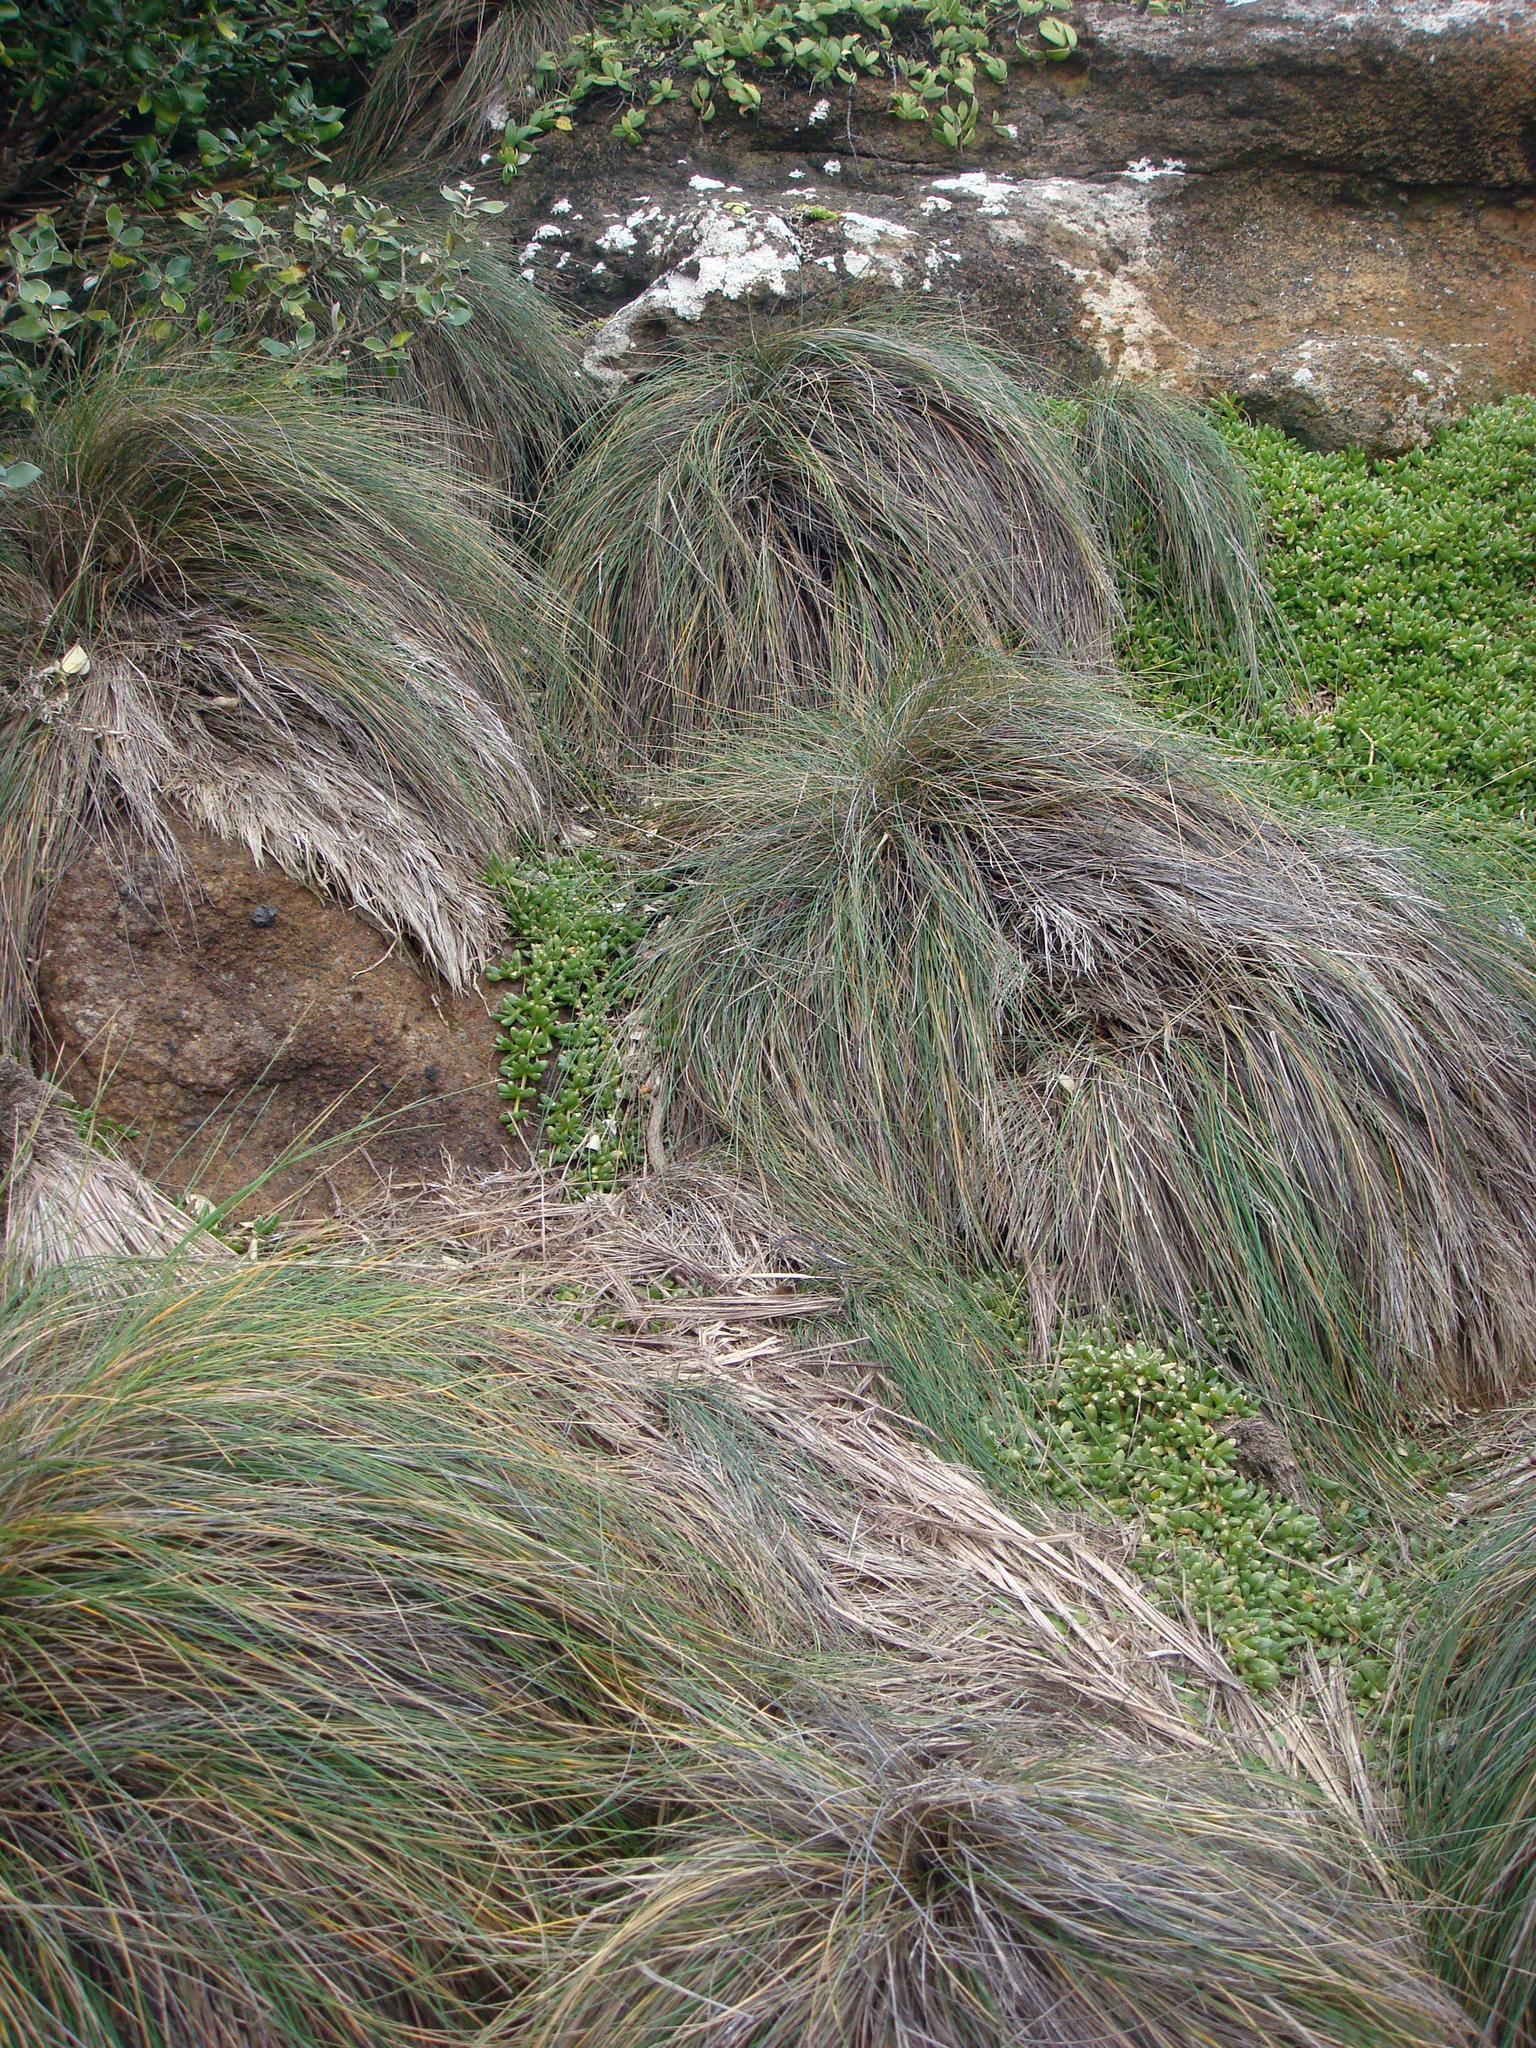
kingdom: Plantae
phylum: Tracheophyta
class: Liliopsida
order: Poales
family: Poaceae
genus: Festuca
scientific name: Festuca coxii
